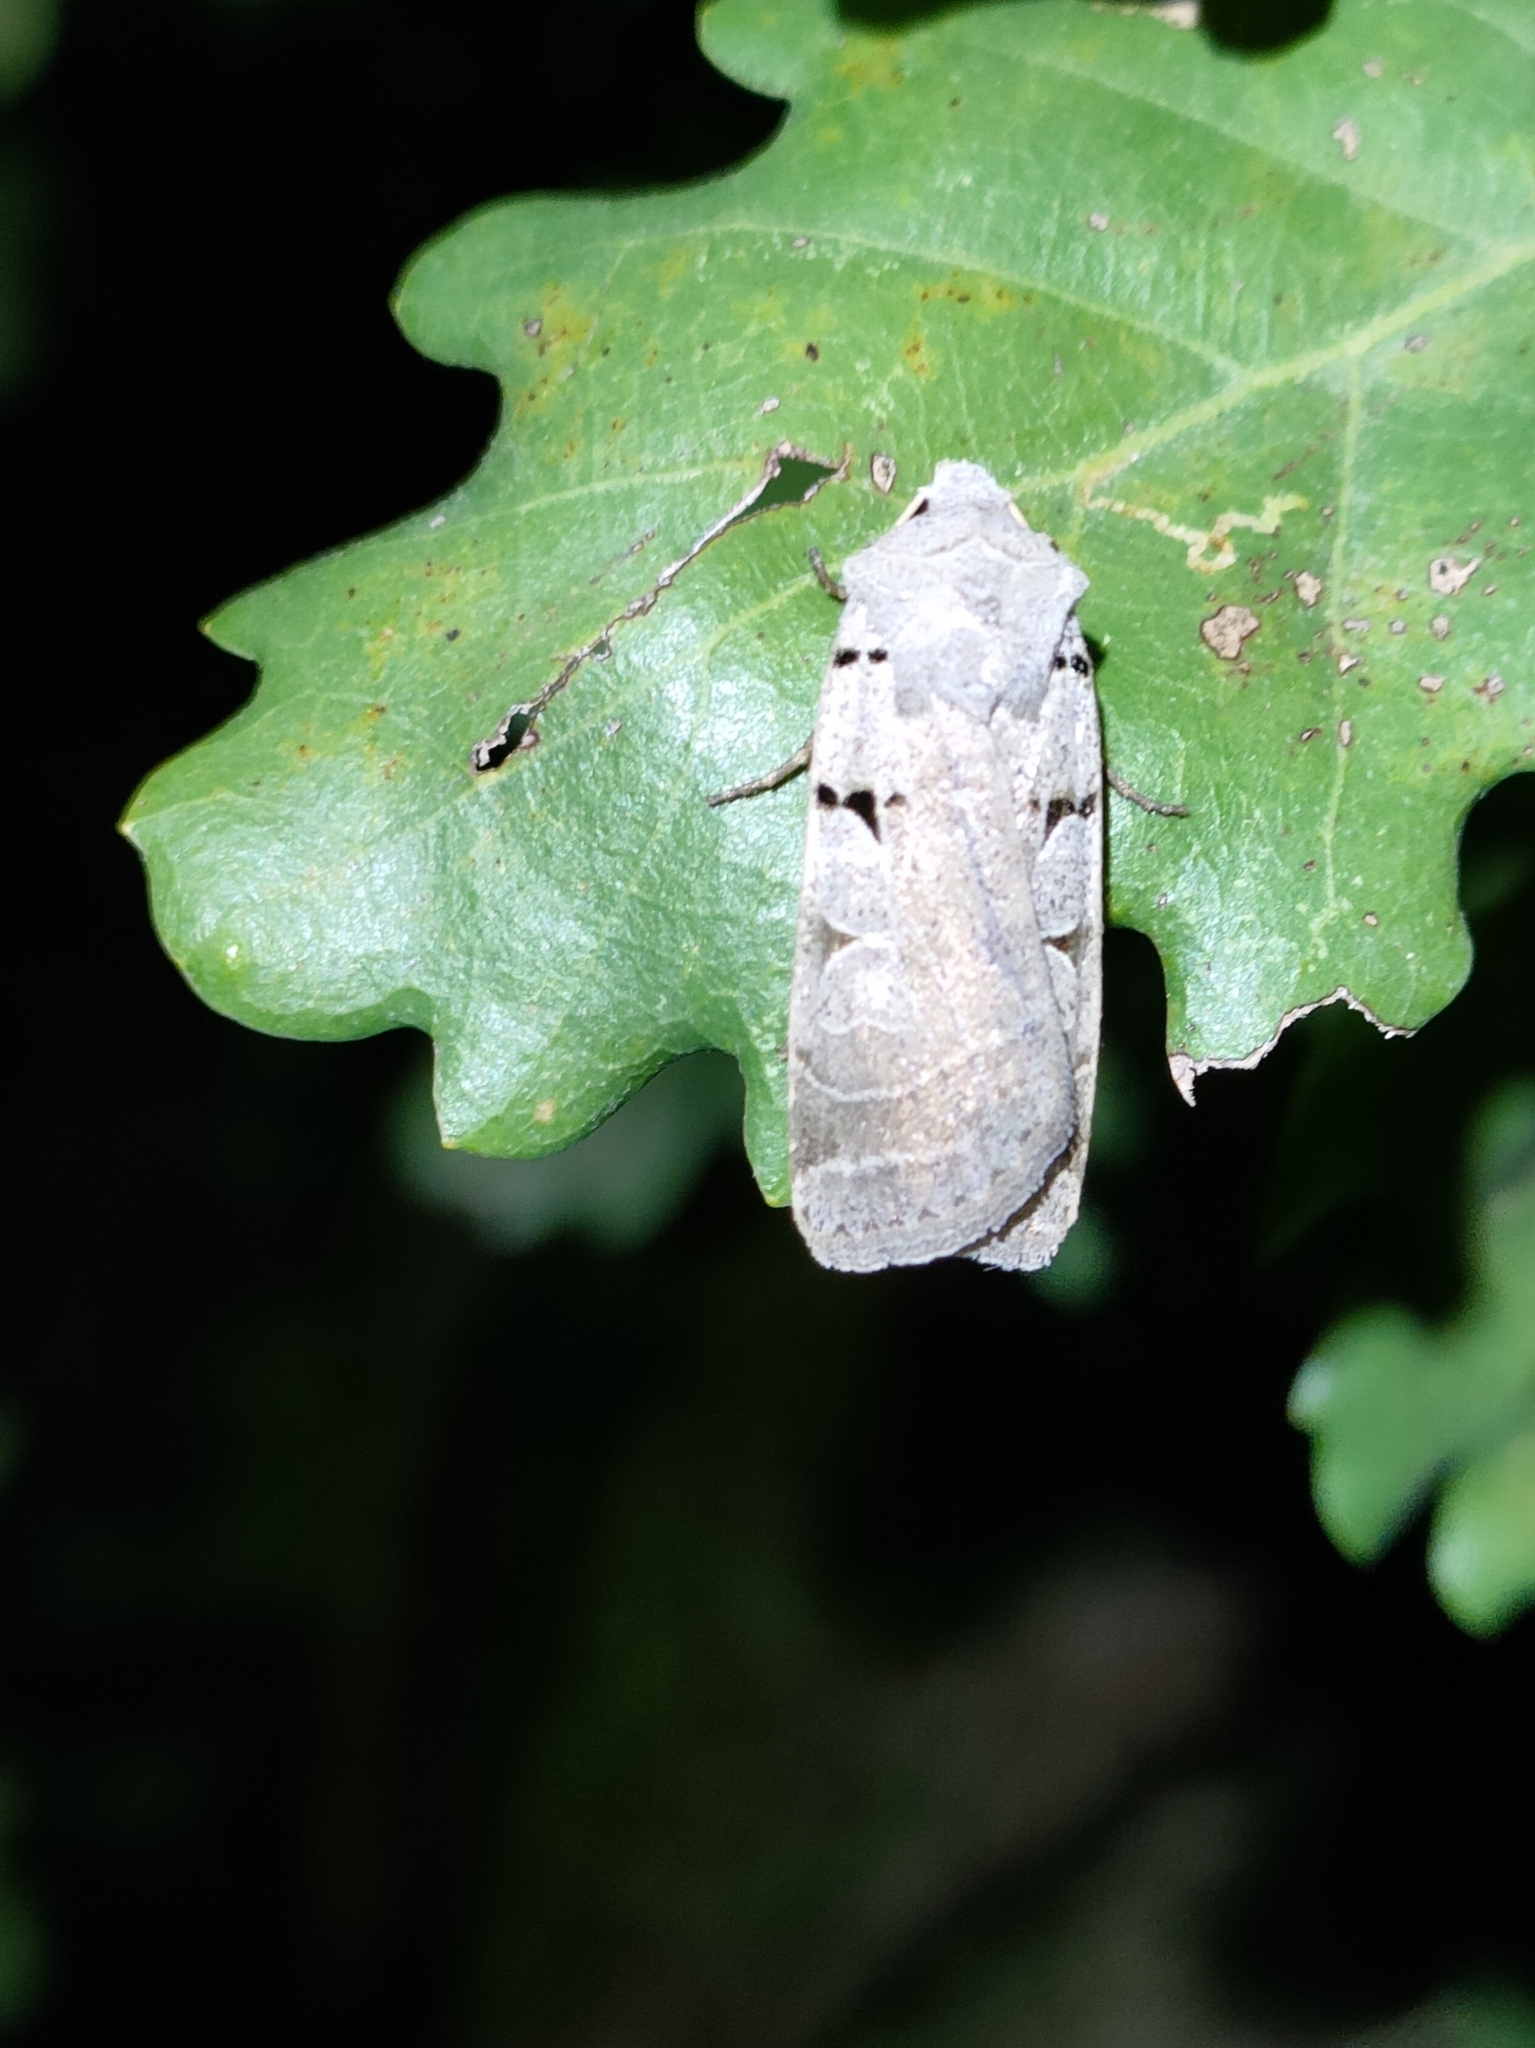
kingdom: Animalia
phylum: Arthropoda
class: Insecta
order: Lepidoptera
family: Noctuidae
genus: Eugnorisma
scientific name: Eugnorisma glareosa
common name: Autumnal rustic
